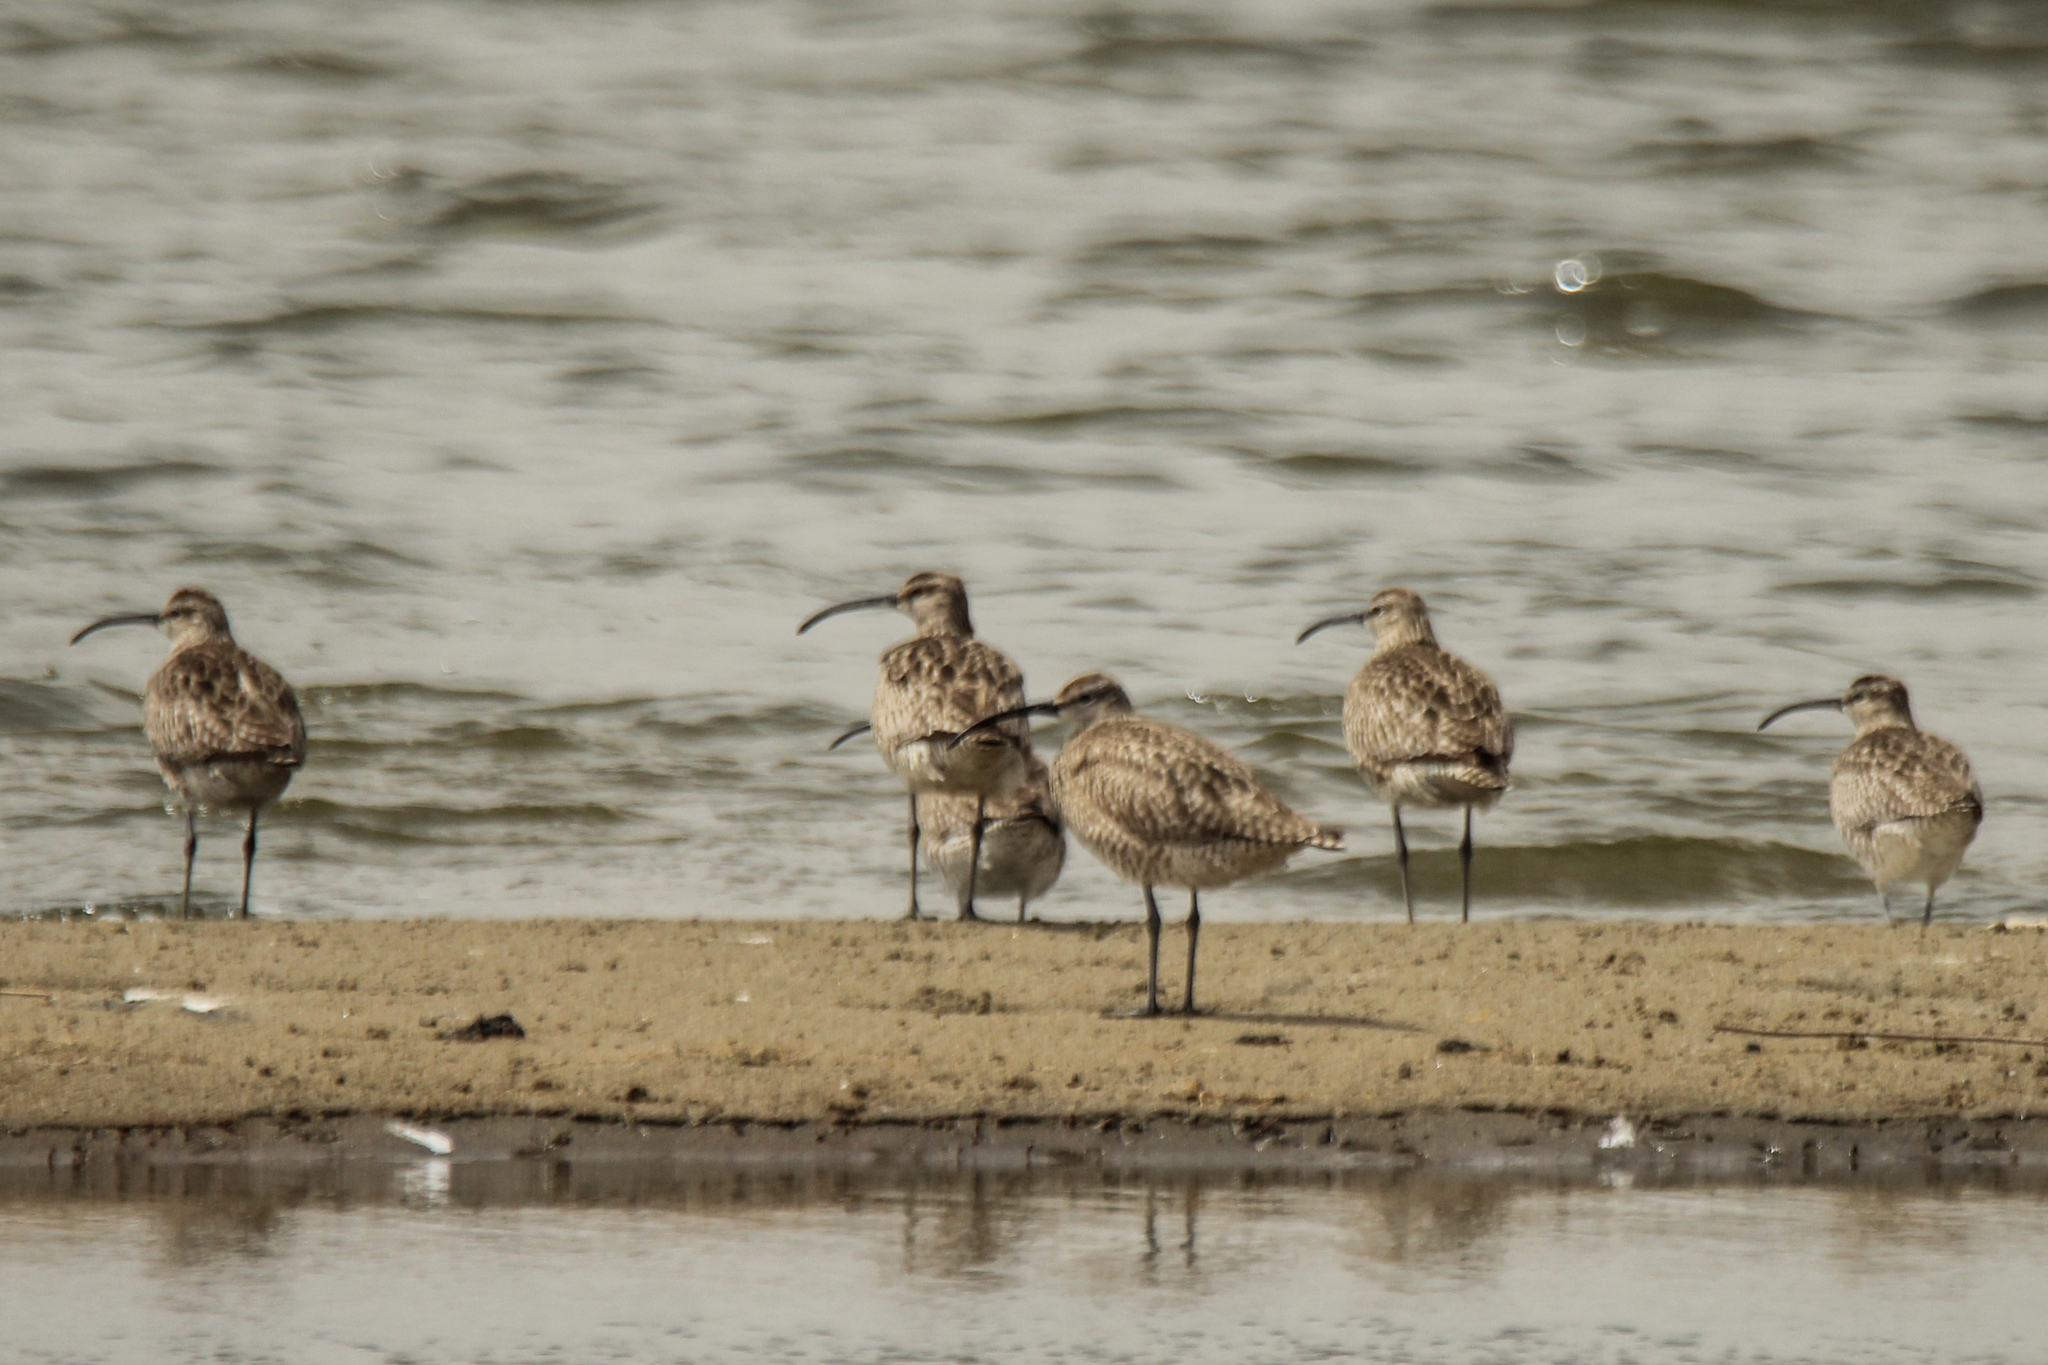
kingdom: Animalia
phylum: Chordata
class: Aves
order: Charadriiformes
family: Scolopacidae
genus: Numenius
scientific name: Numenius phaeopus
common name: Whimbrel
